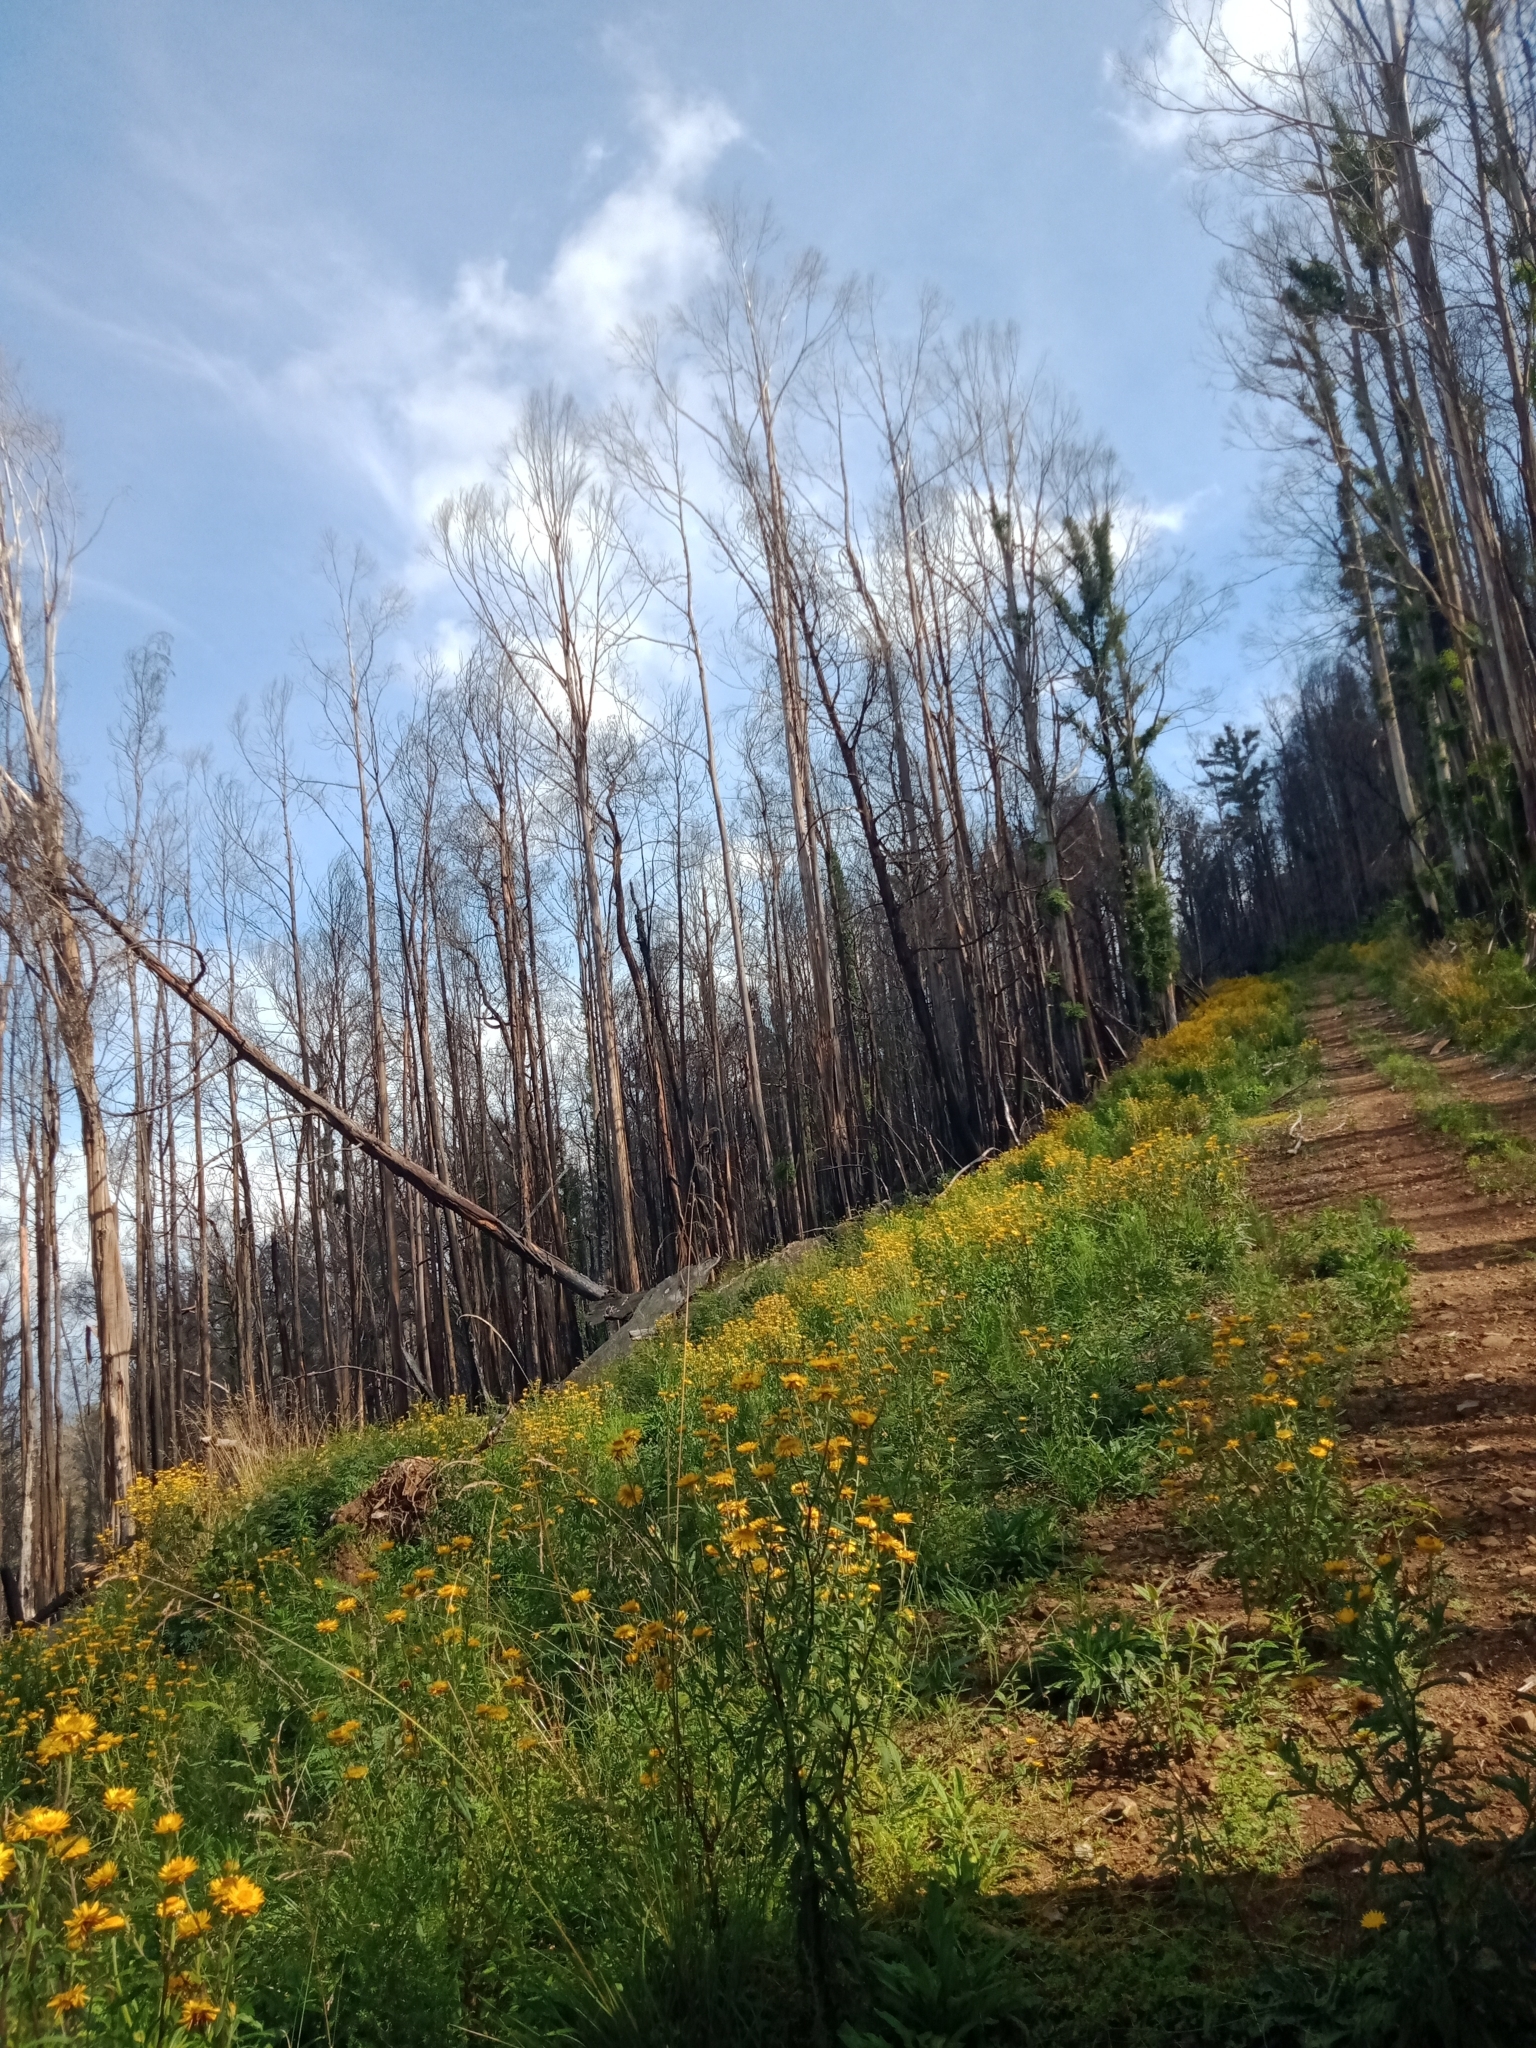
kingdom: Plantae
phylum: Tracheophyta
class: Magnoliopsida
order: Asterales
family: Asteraceae
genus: Xerochrysum
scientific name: Xerochrysum bracteatum
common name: Bracted strawflower
